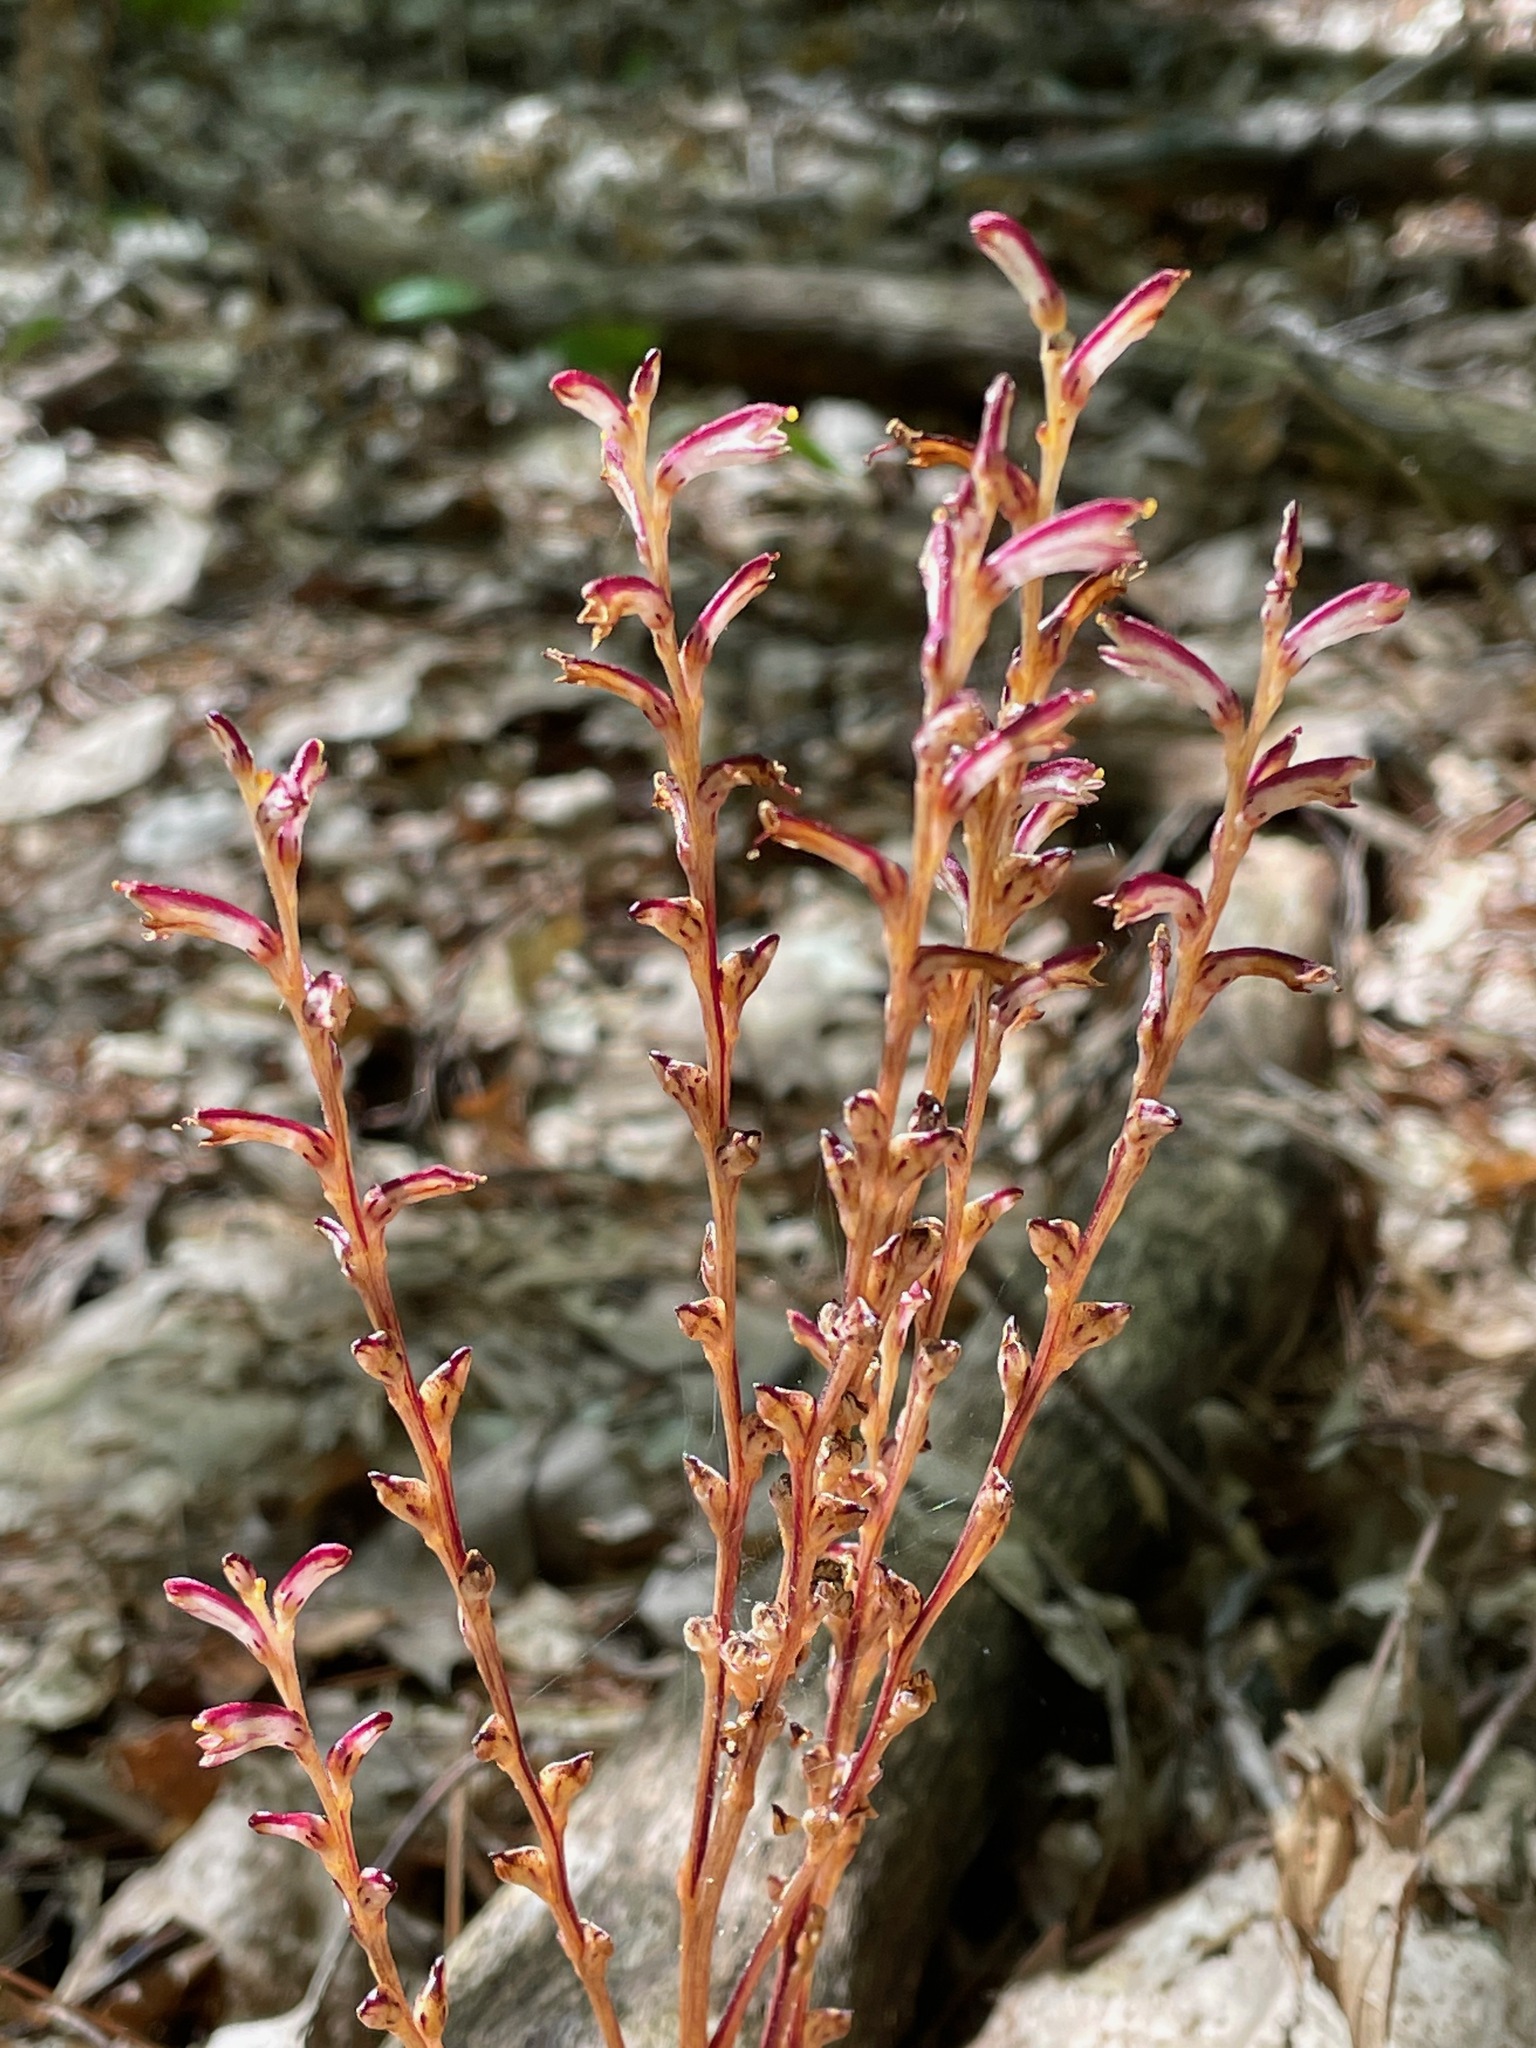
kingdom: Plantae
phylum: Tracheophyta
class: Magnoliopsida
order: Lamiales
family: Orobanchaceae
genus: Epifagus
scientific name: Epifagus virginiana
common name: Beechdrops
